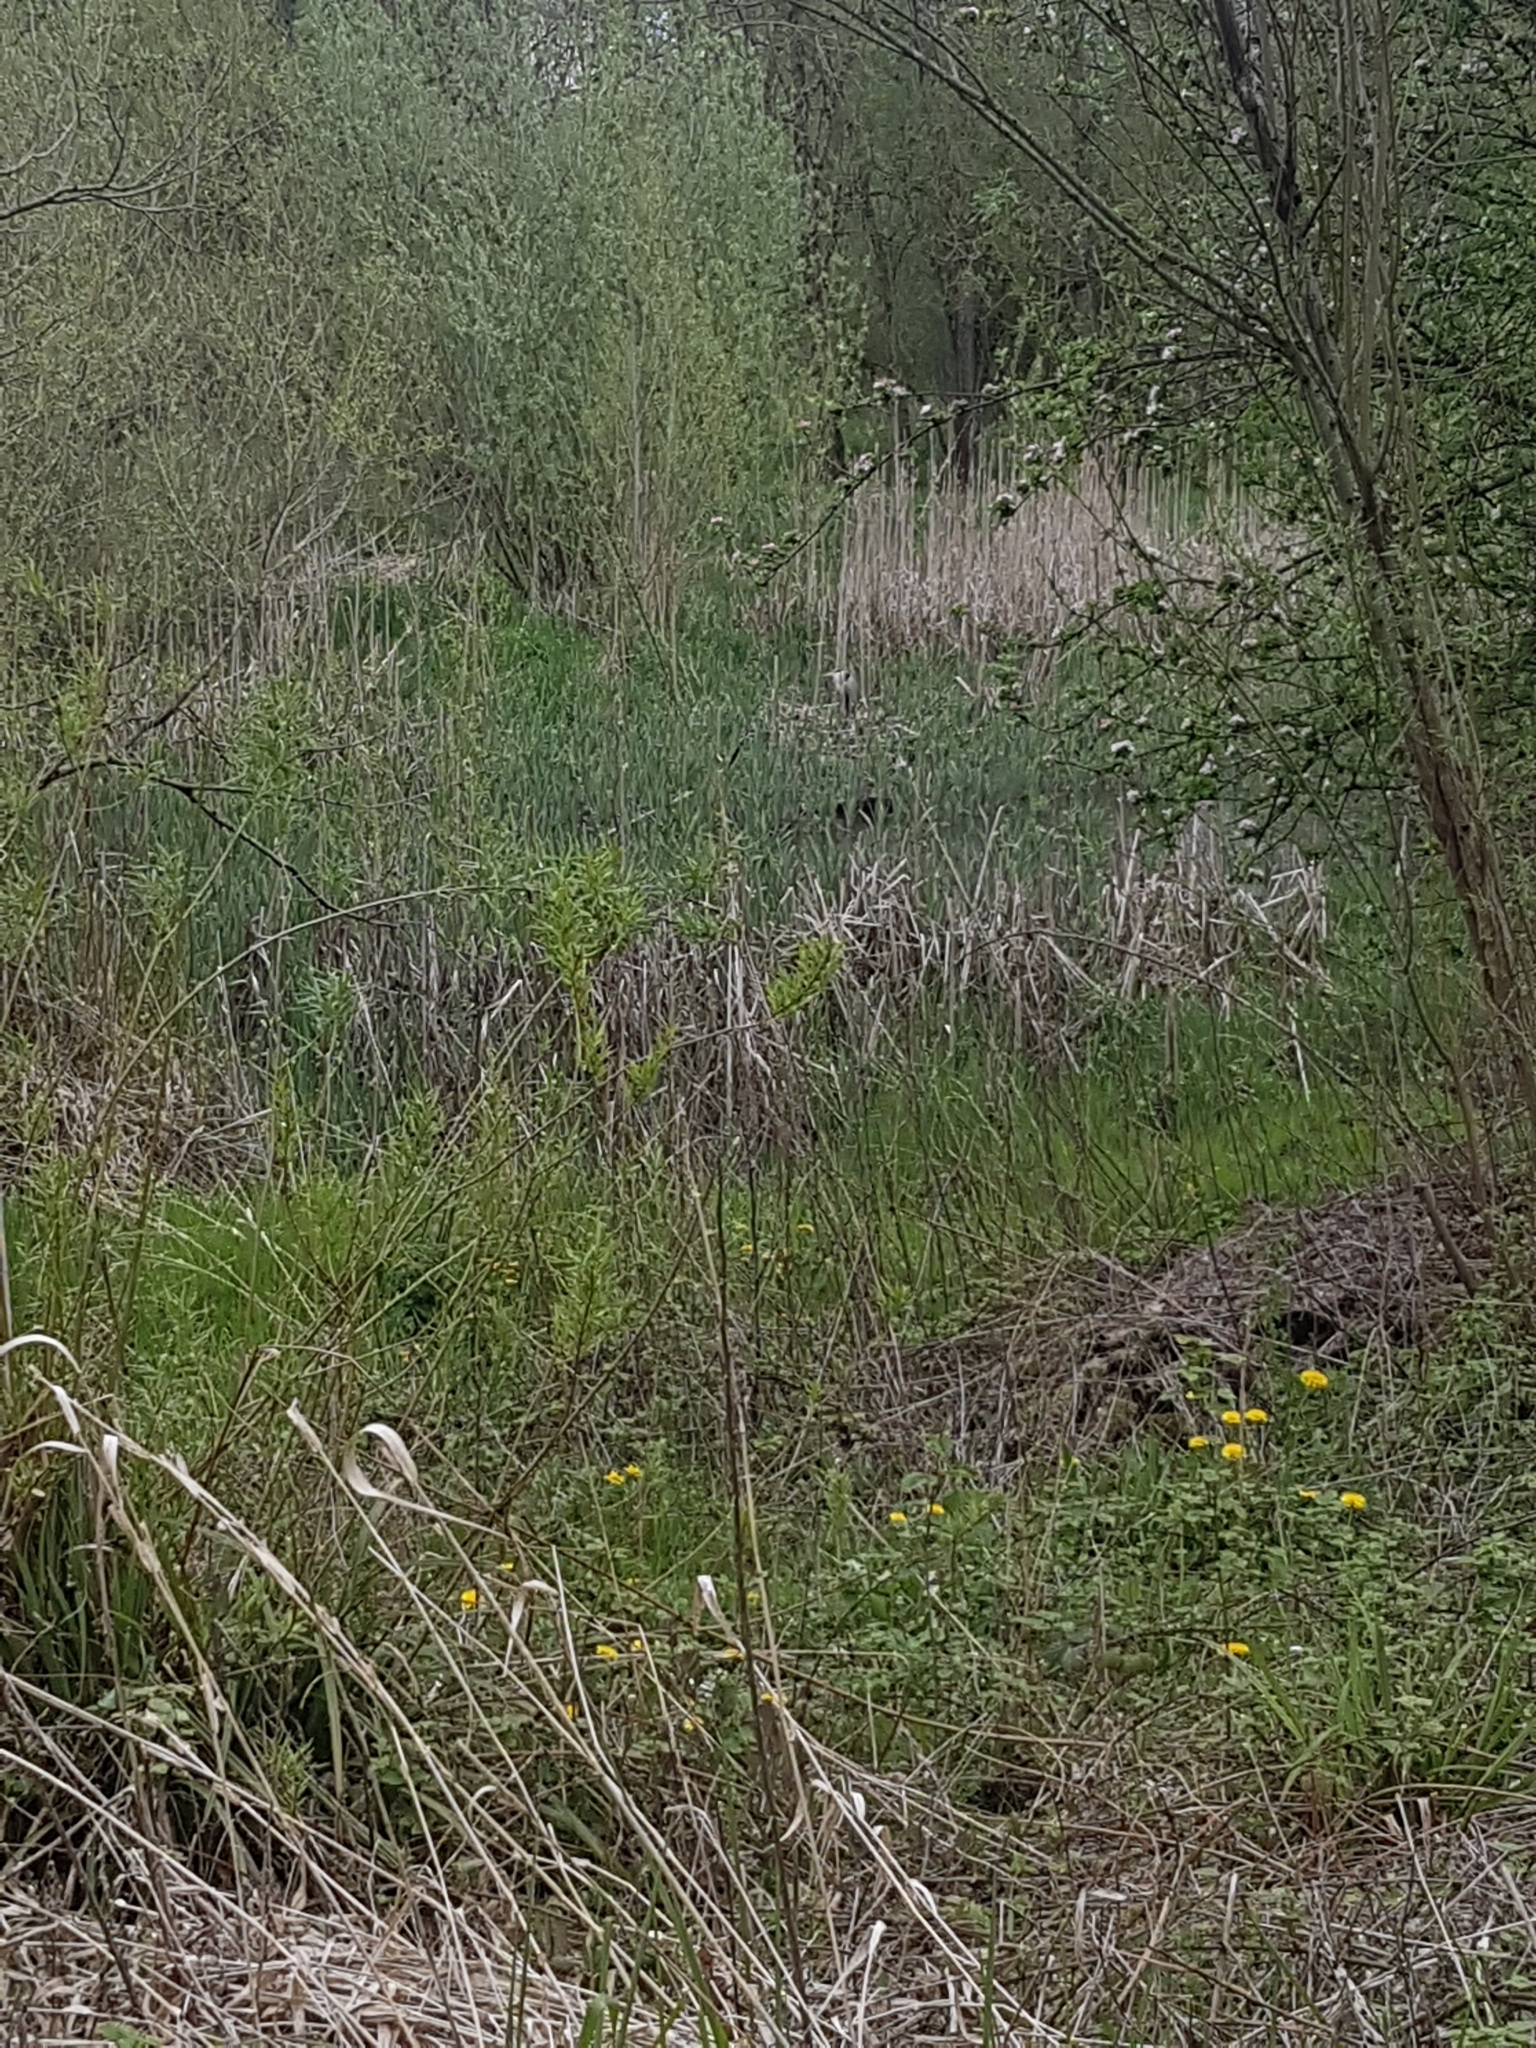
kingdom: Animalia
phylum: Chordata
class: Aves
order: Pelecaniformes
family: Ardeidae
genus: Ardea
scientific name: Ardea cinerea
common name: Grey heron
